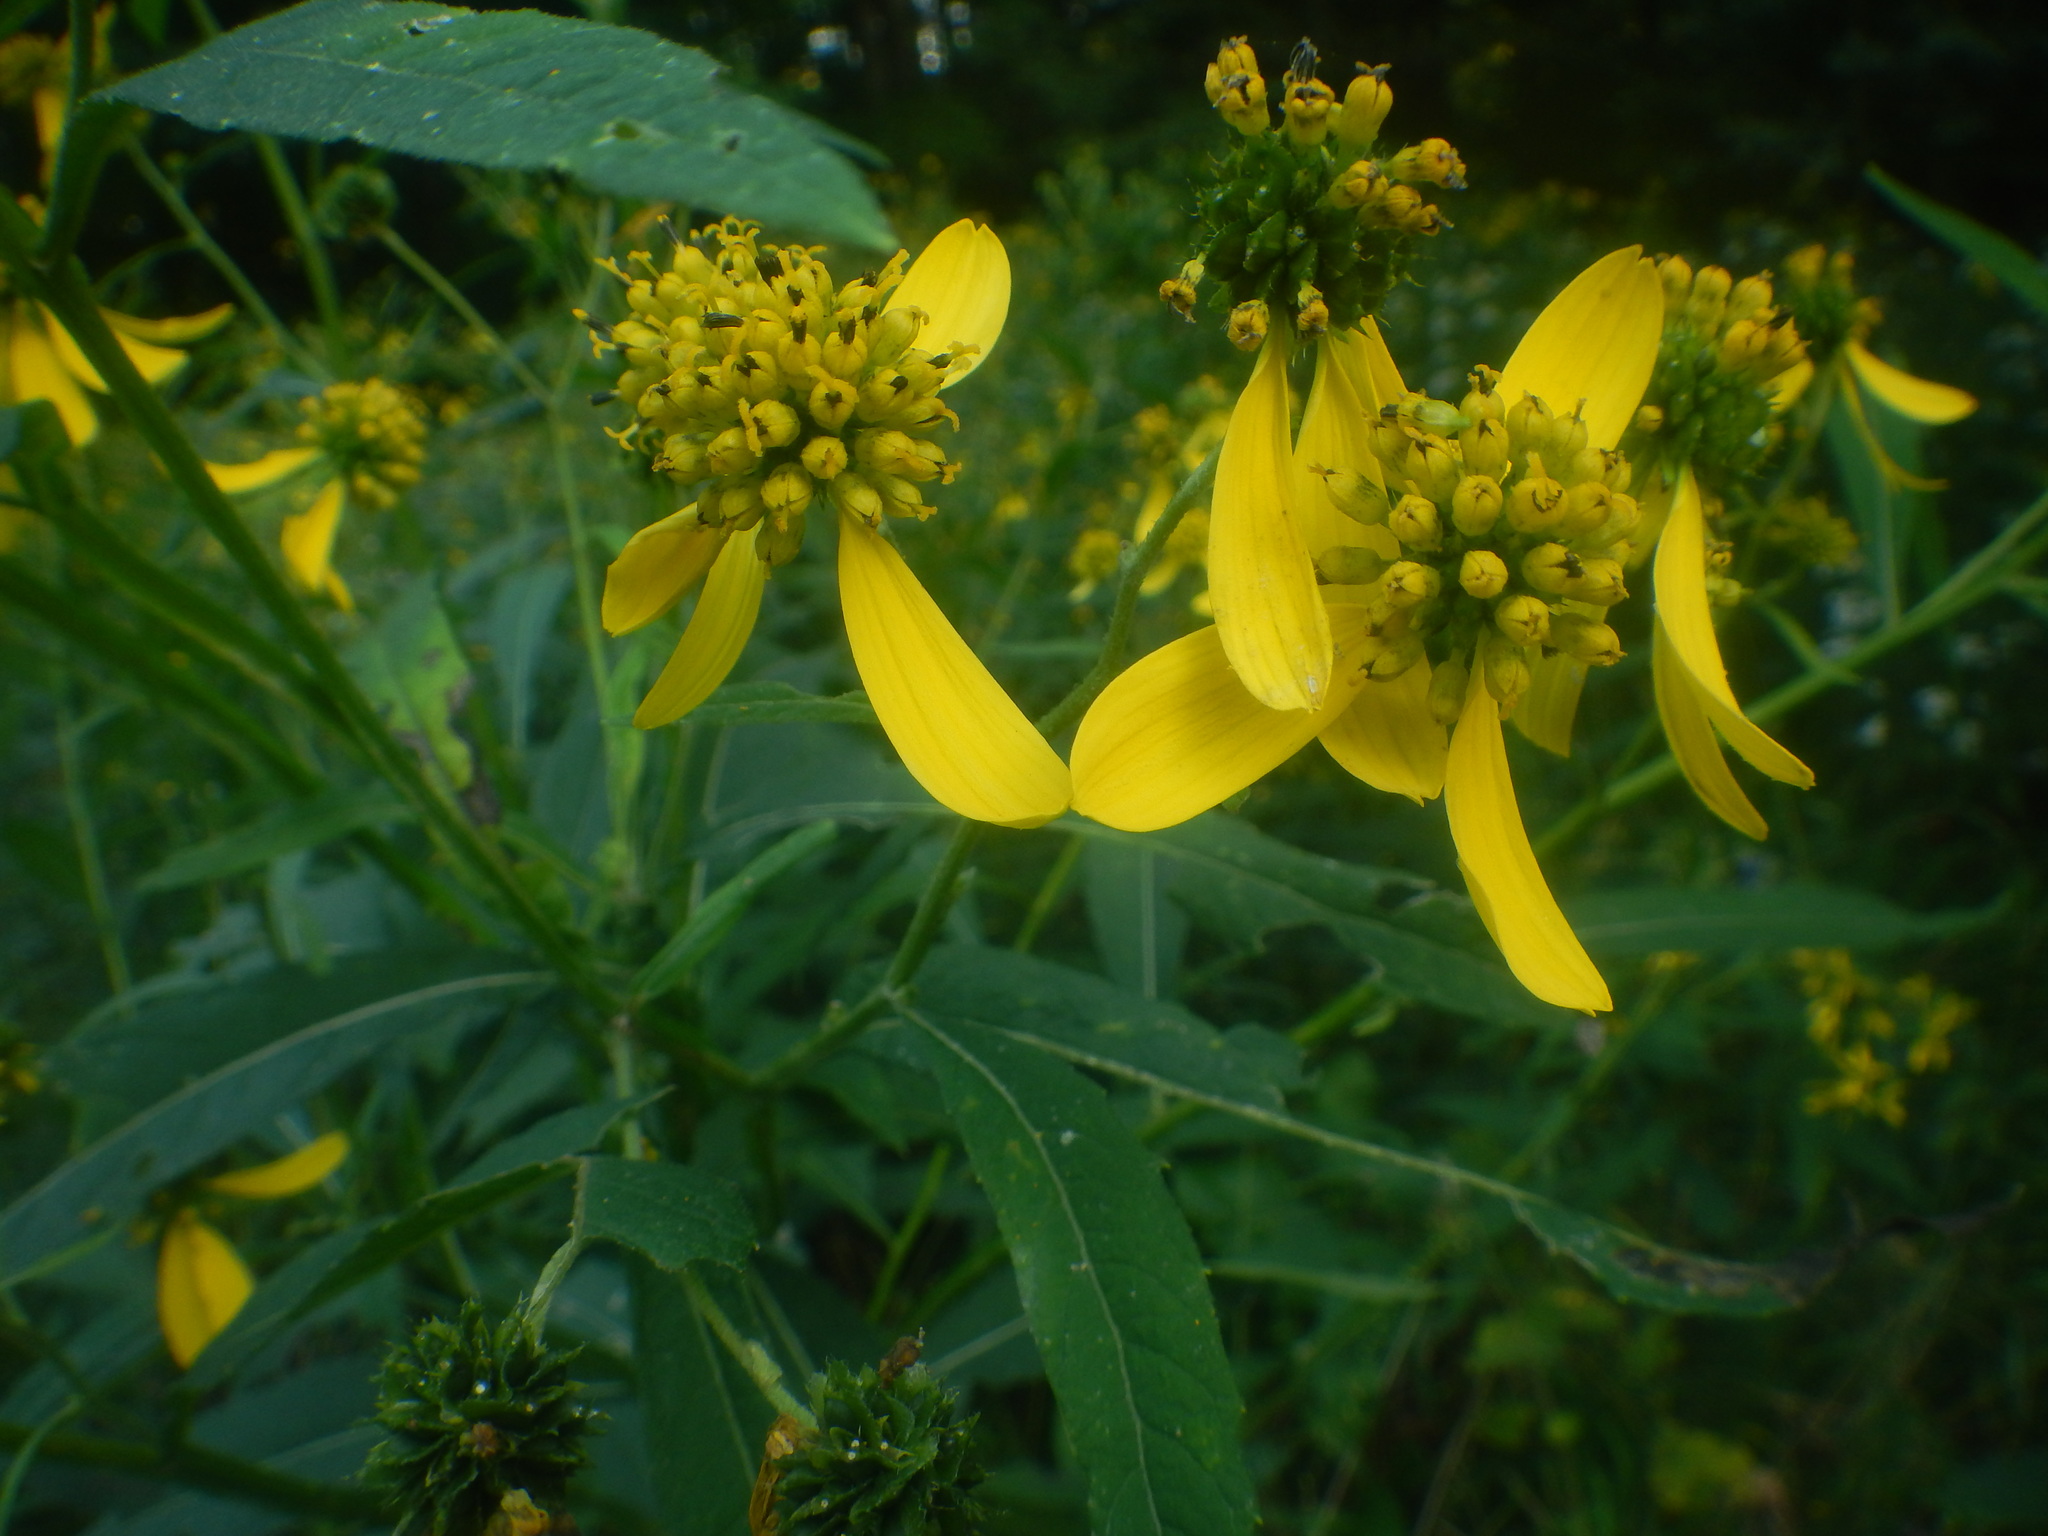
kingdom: Plantae
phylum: Tracheophyta
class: Magnoliopsida
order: Asterales
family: Asteraceae
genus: Verbesina
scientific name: Verbesina alternifolia
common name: Wingstem
